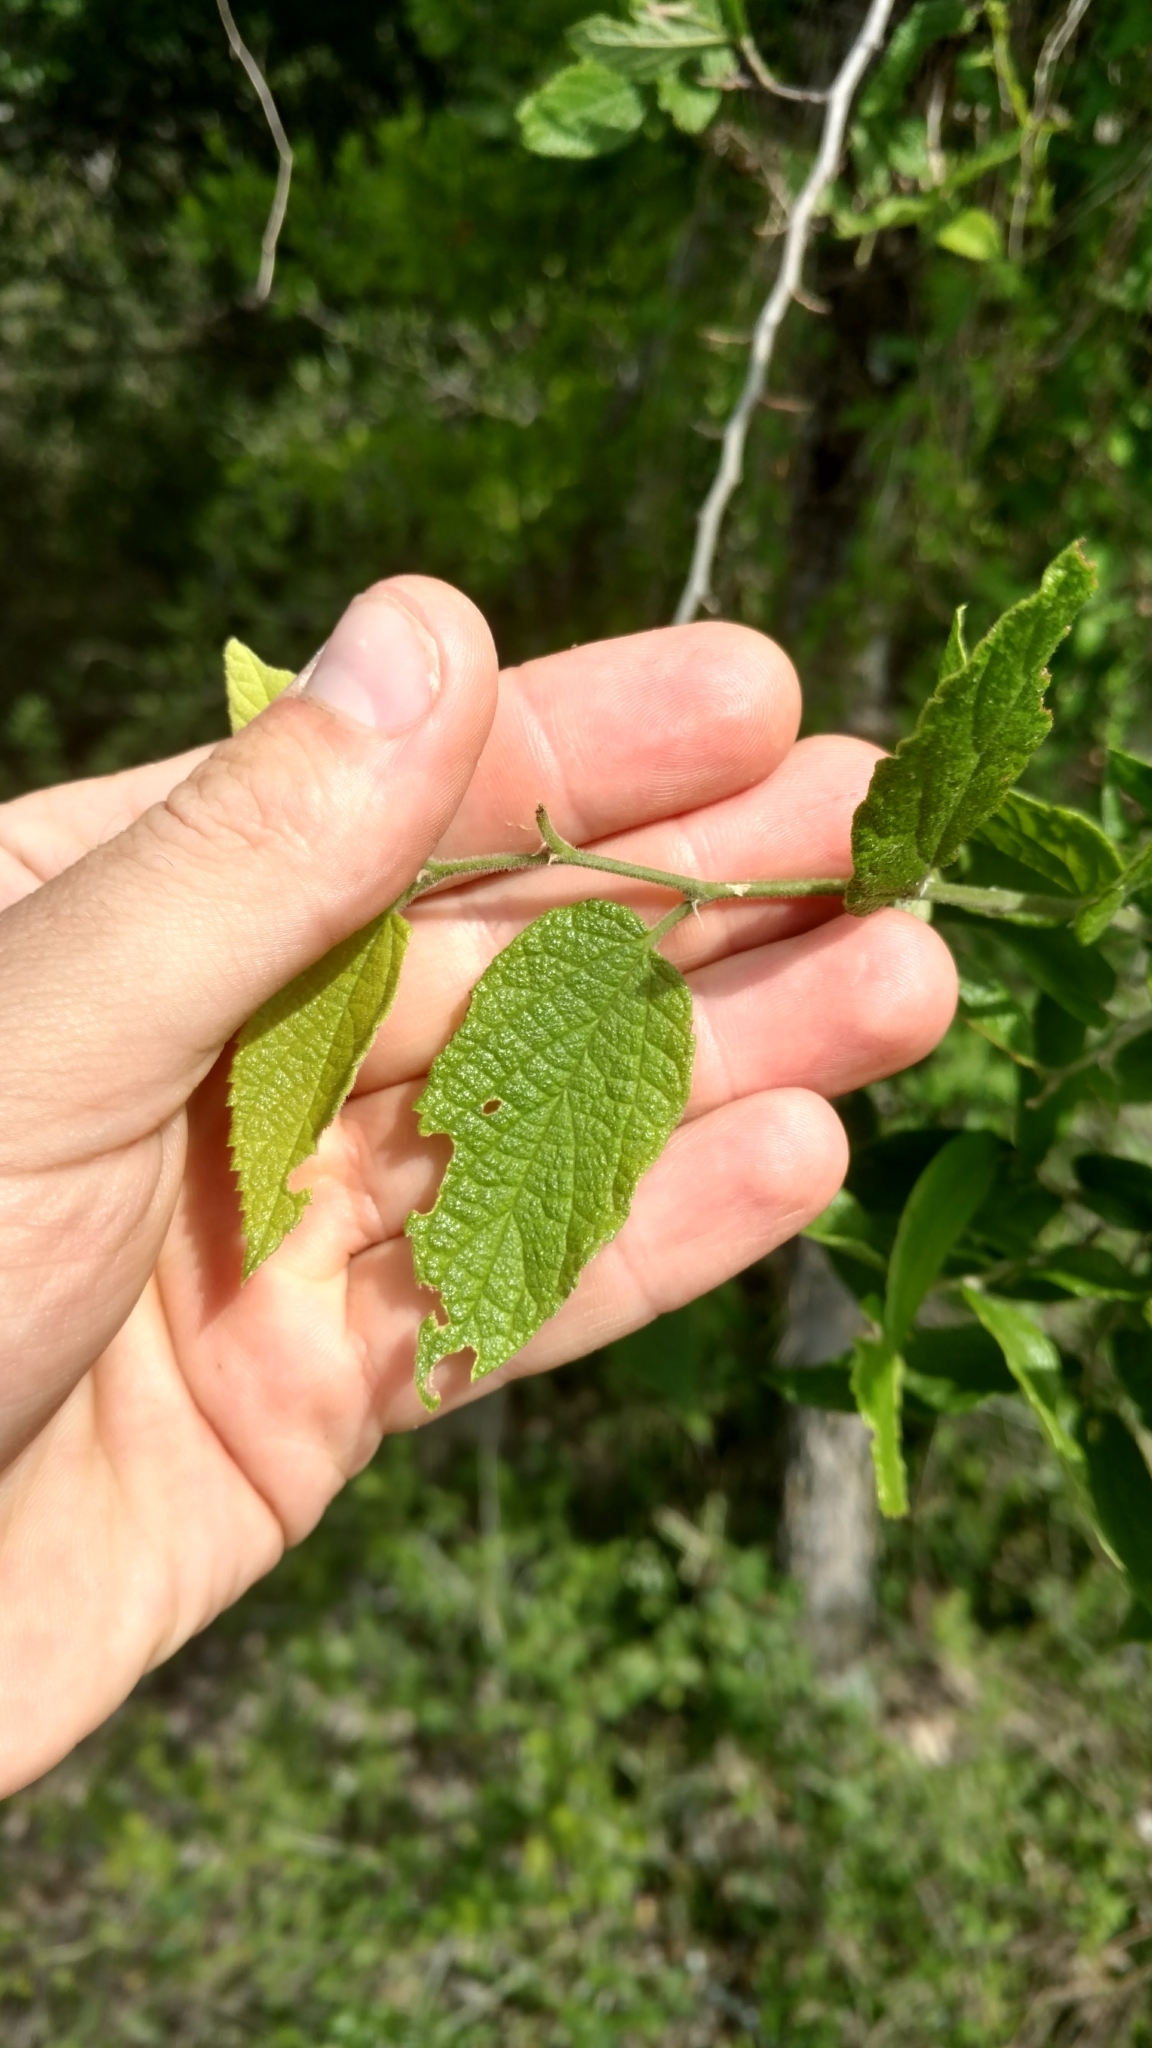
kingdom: Plantae
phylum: Tracheophyta
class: Magnoliopsida
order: Rosales
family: Cannabaceae
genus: Celtis
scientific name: Celtis reticulata
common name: Netleaf hackberry
